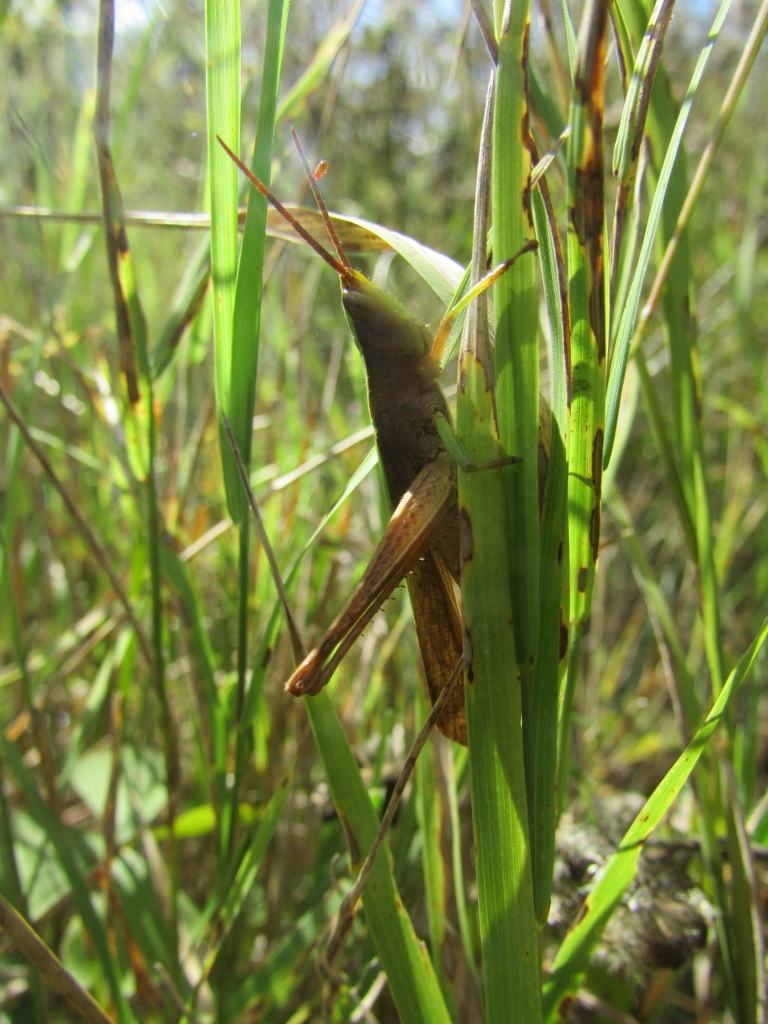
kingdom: Animalia
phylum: Arthropoda
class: Insecta
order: Orthoptera
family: Acrididae
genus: Metaleptea
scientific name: Metaleptea adspersa
